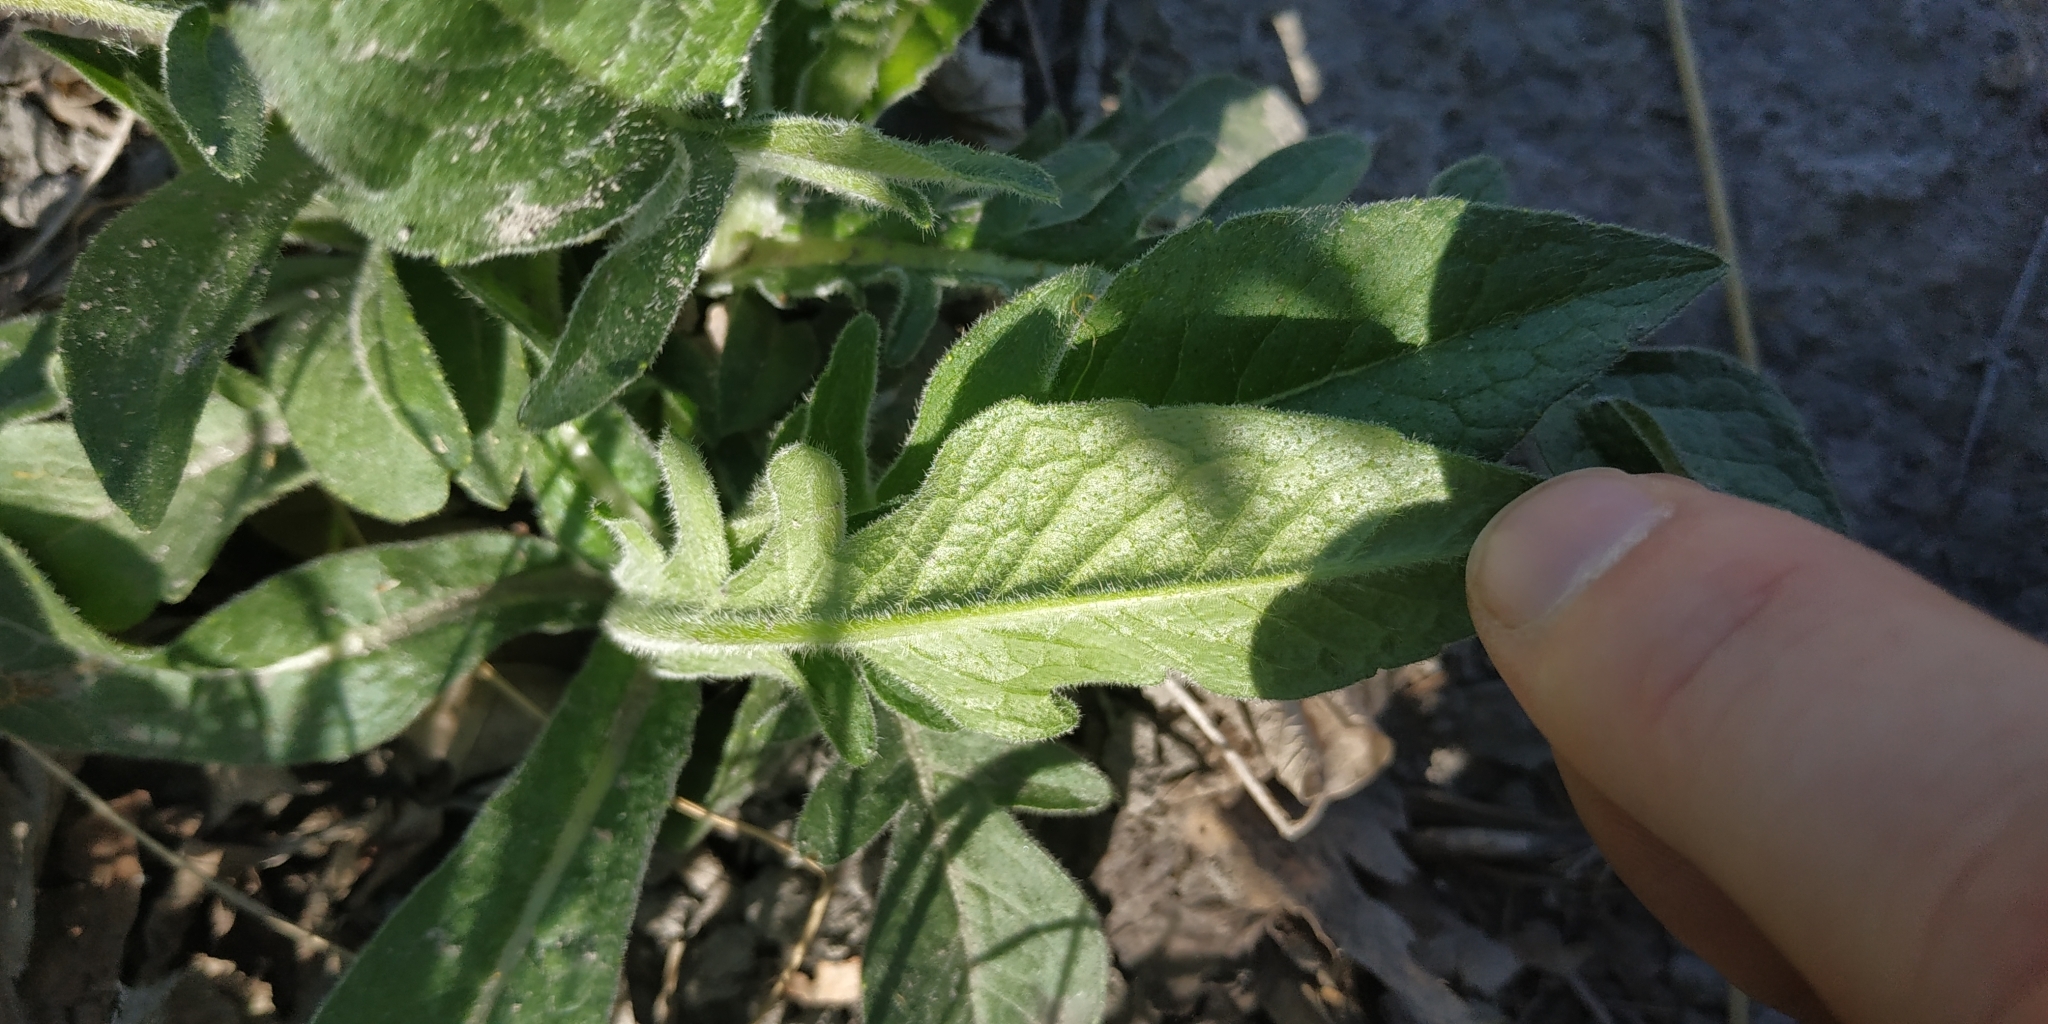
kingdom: Plantae
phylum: Tracheophyta
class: Magnoliopsida
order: Dipsacales
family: Caprifoliaceae
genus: Knautia
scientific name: Knautia arvensis
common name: Field scabiosa
